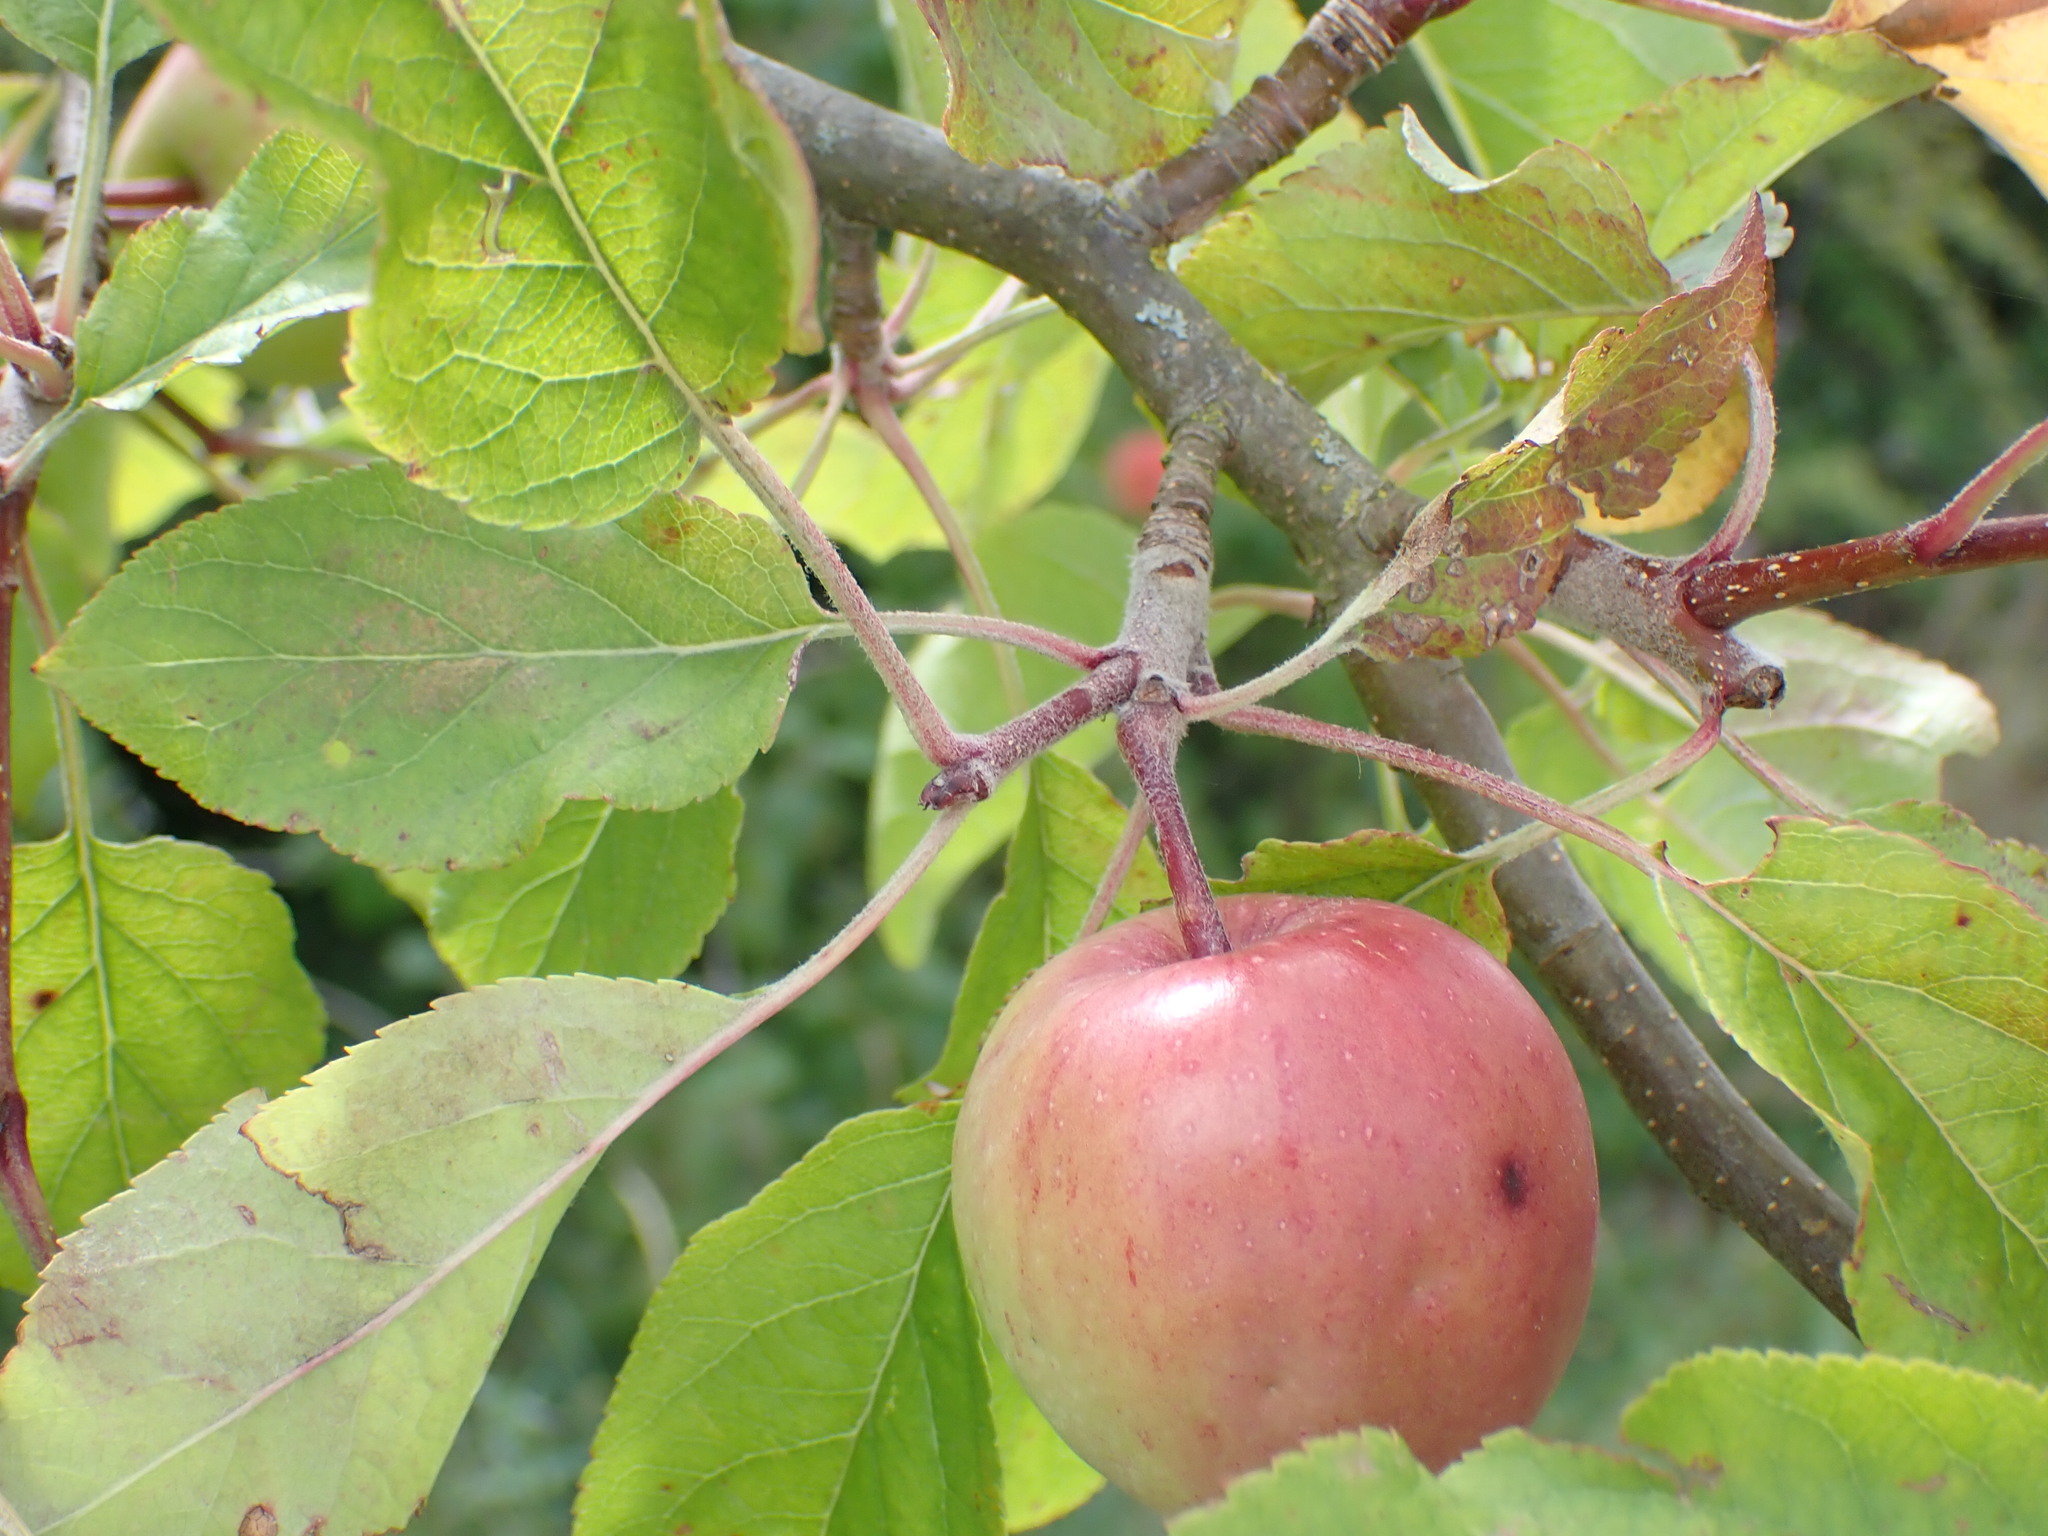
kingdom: Plantae
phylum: Tracheophyta
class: Magnoliopsida
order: Rosales
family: Rosaceae
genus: Malus
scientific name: Malus domestica
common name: Apple
